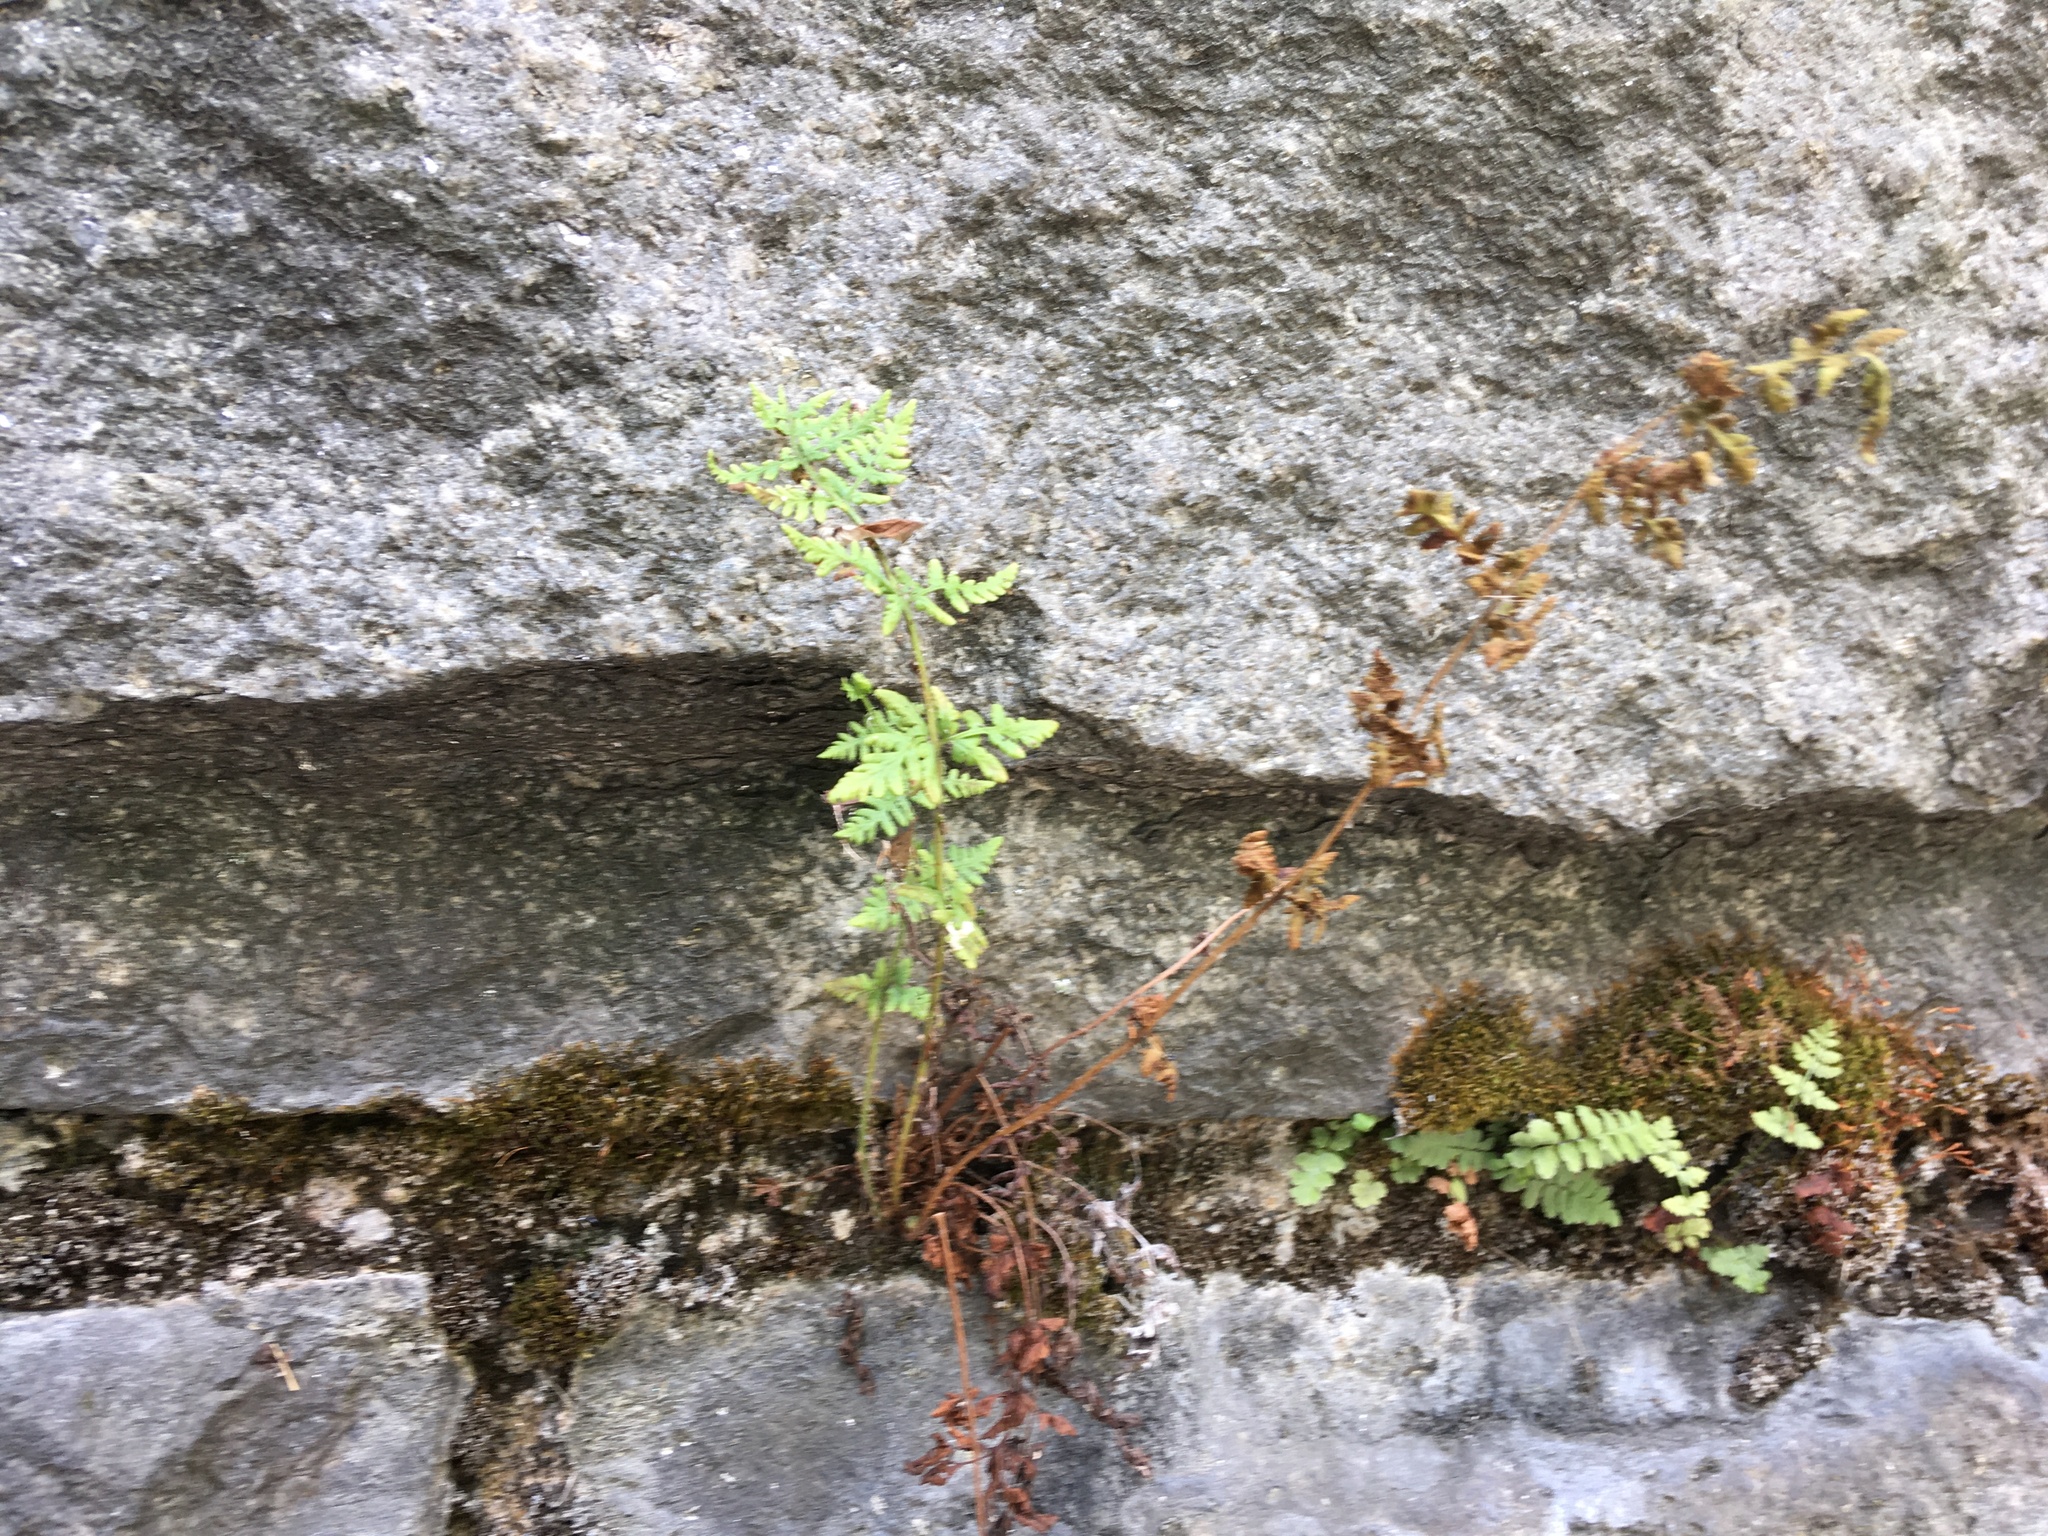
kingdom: Plantae
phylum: Tracheophyta
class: Polypodiopsida
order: Polypodiales
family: Woodsiaceae
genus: Physematium
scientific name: Physematium obtusum
